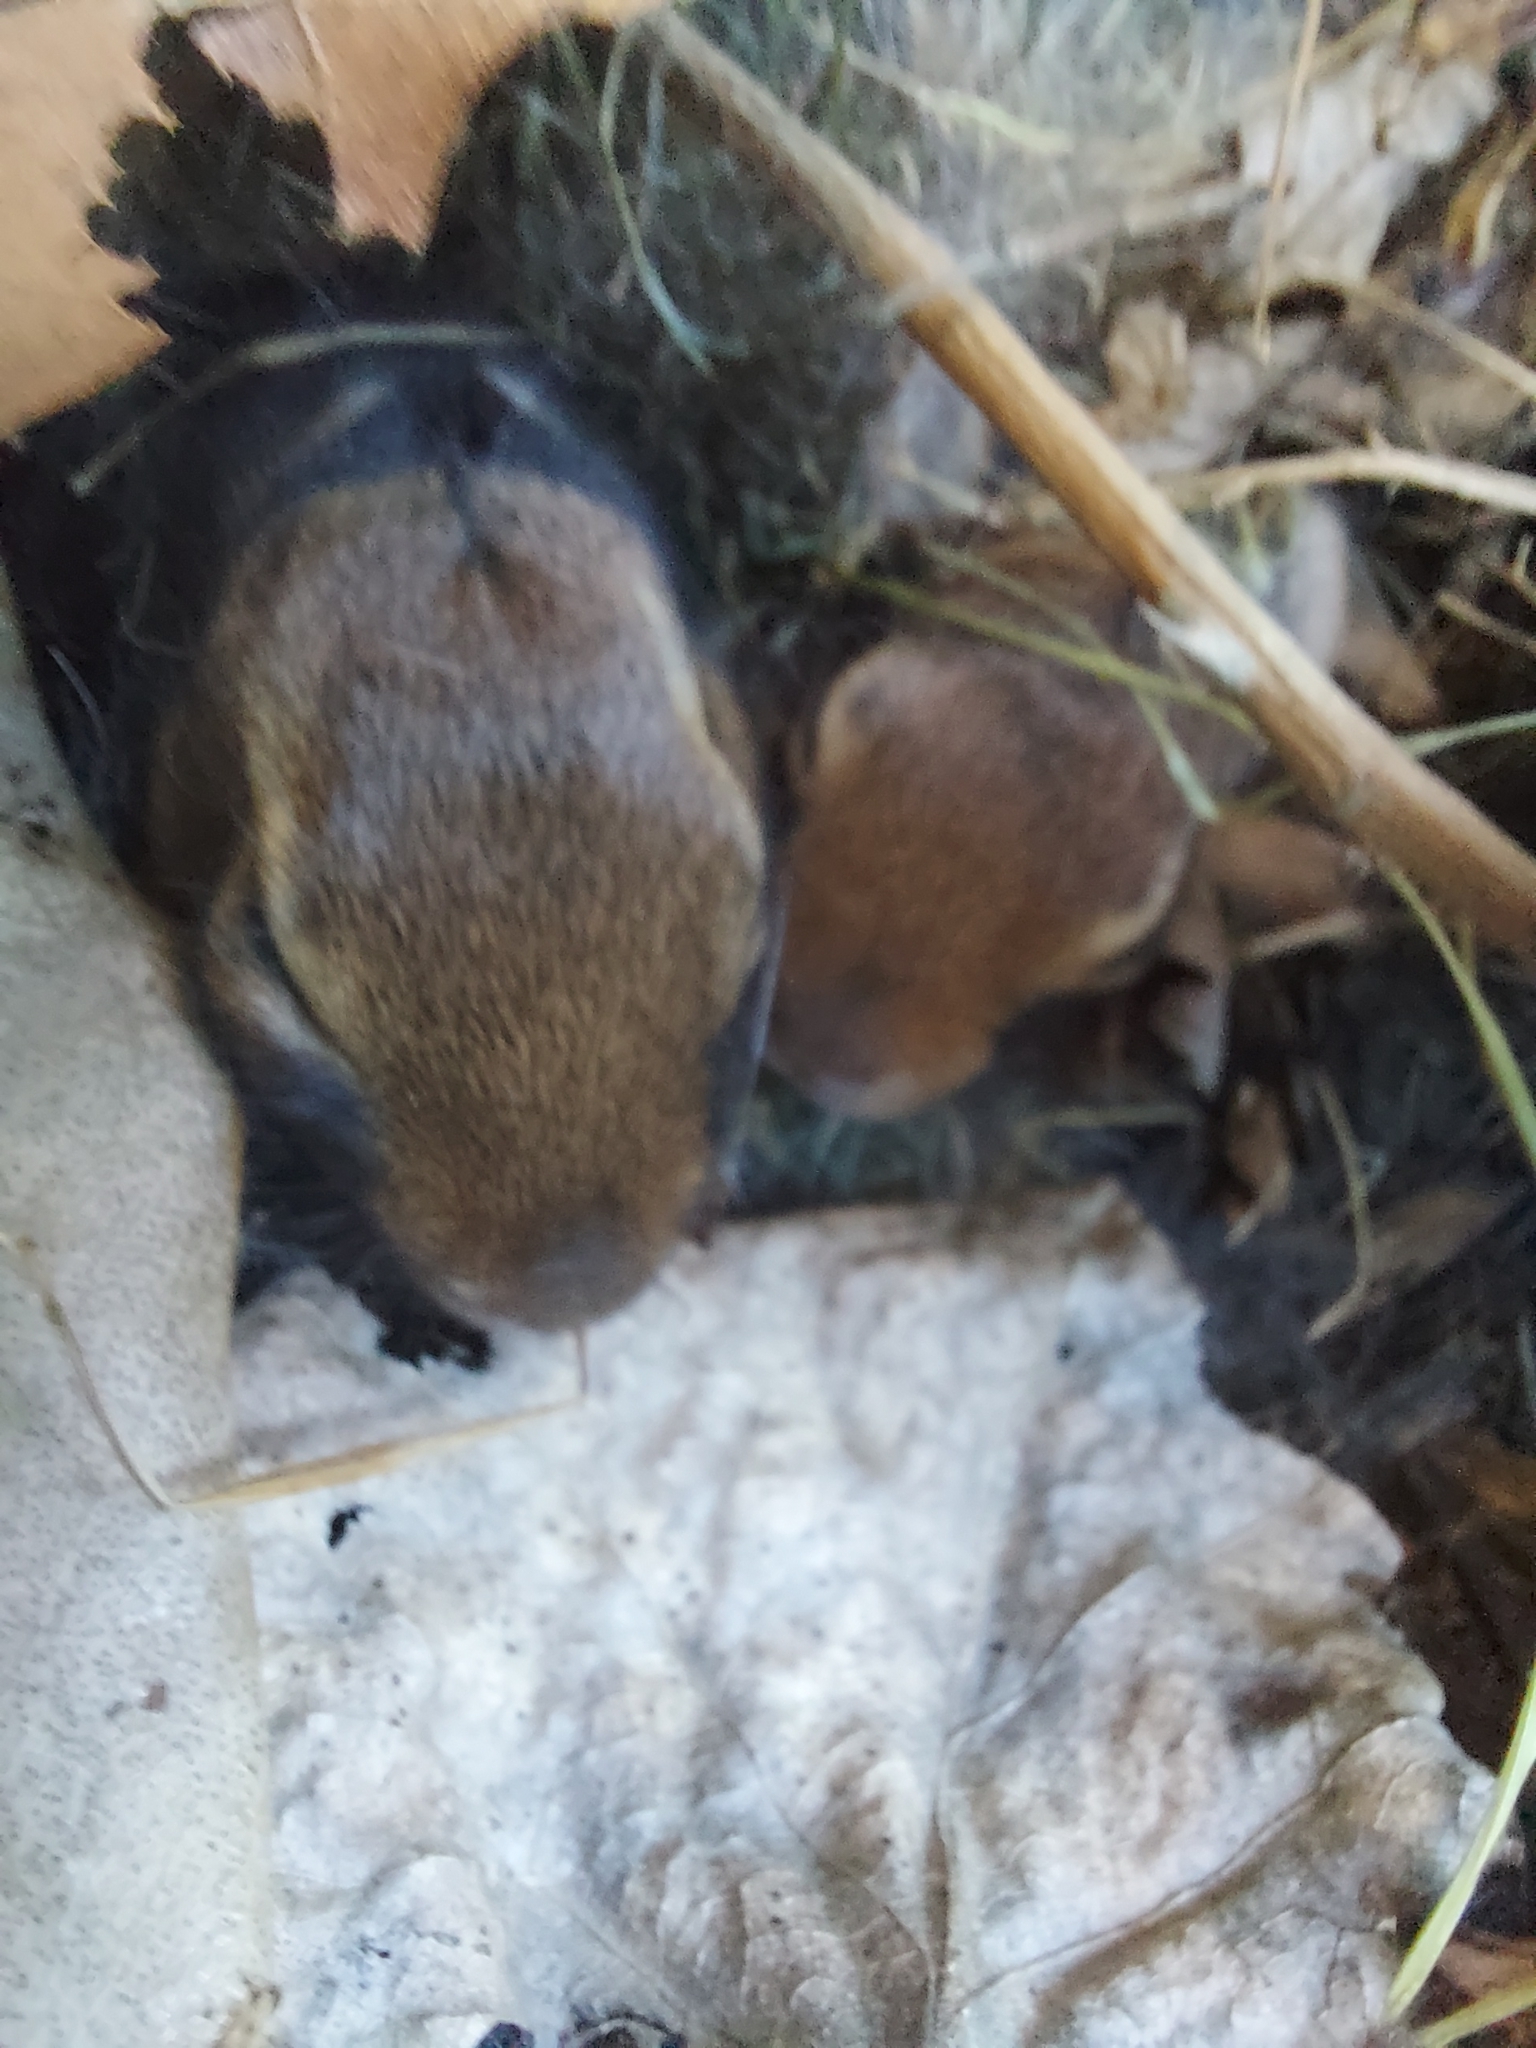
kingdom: Animalia
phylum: Chordata
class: Mammalia
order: Lagomorpha
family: Leporidae
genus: Sylvilagus
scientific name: Sylvilagus floridanus
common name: Eastern cottontail
